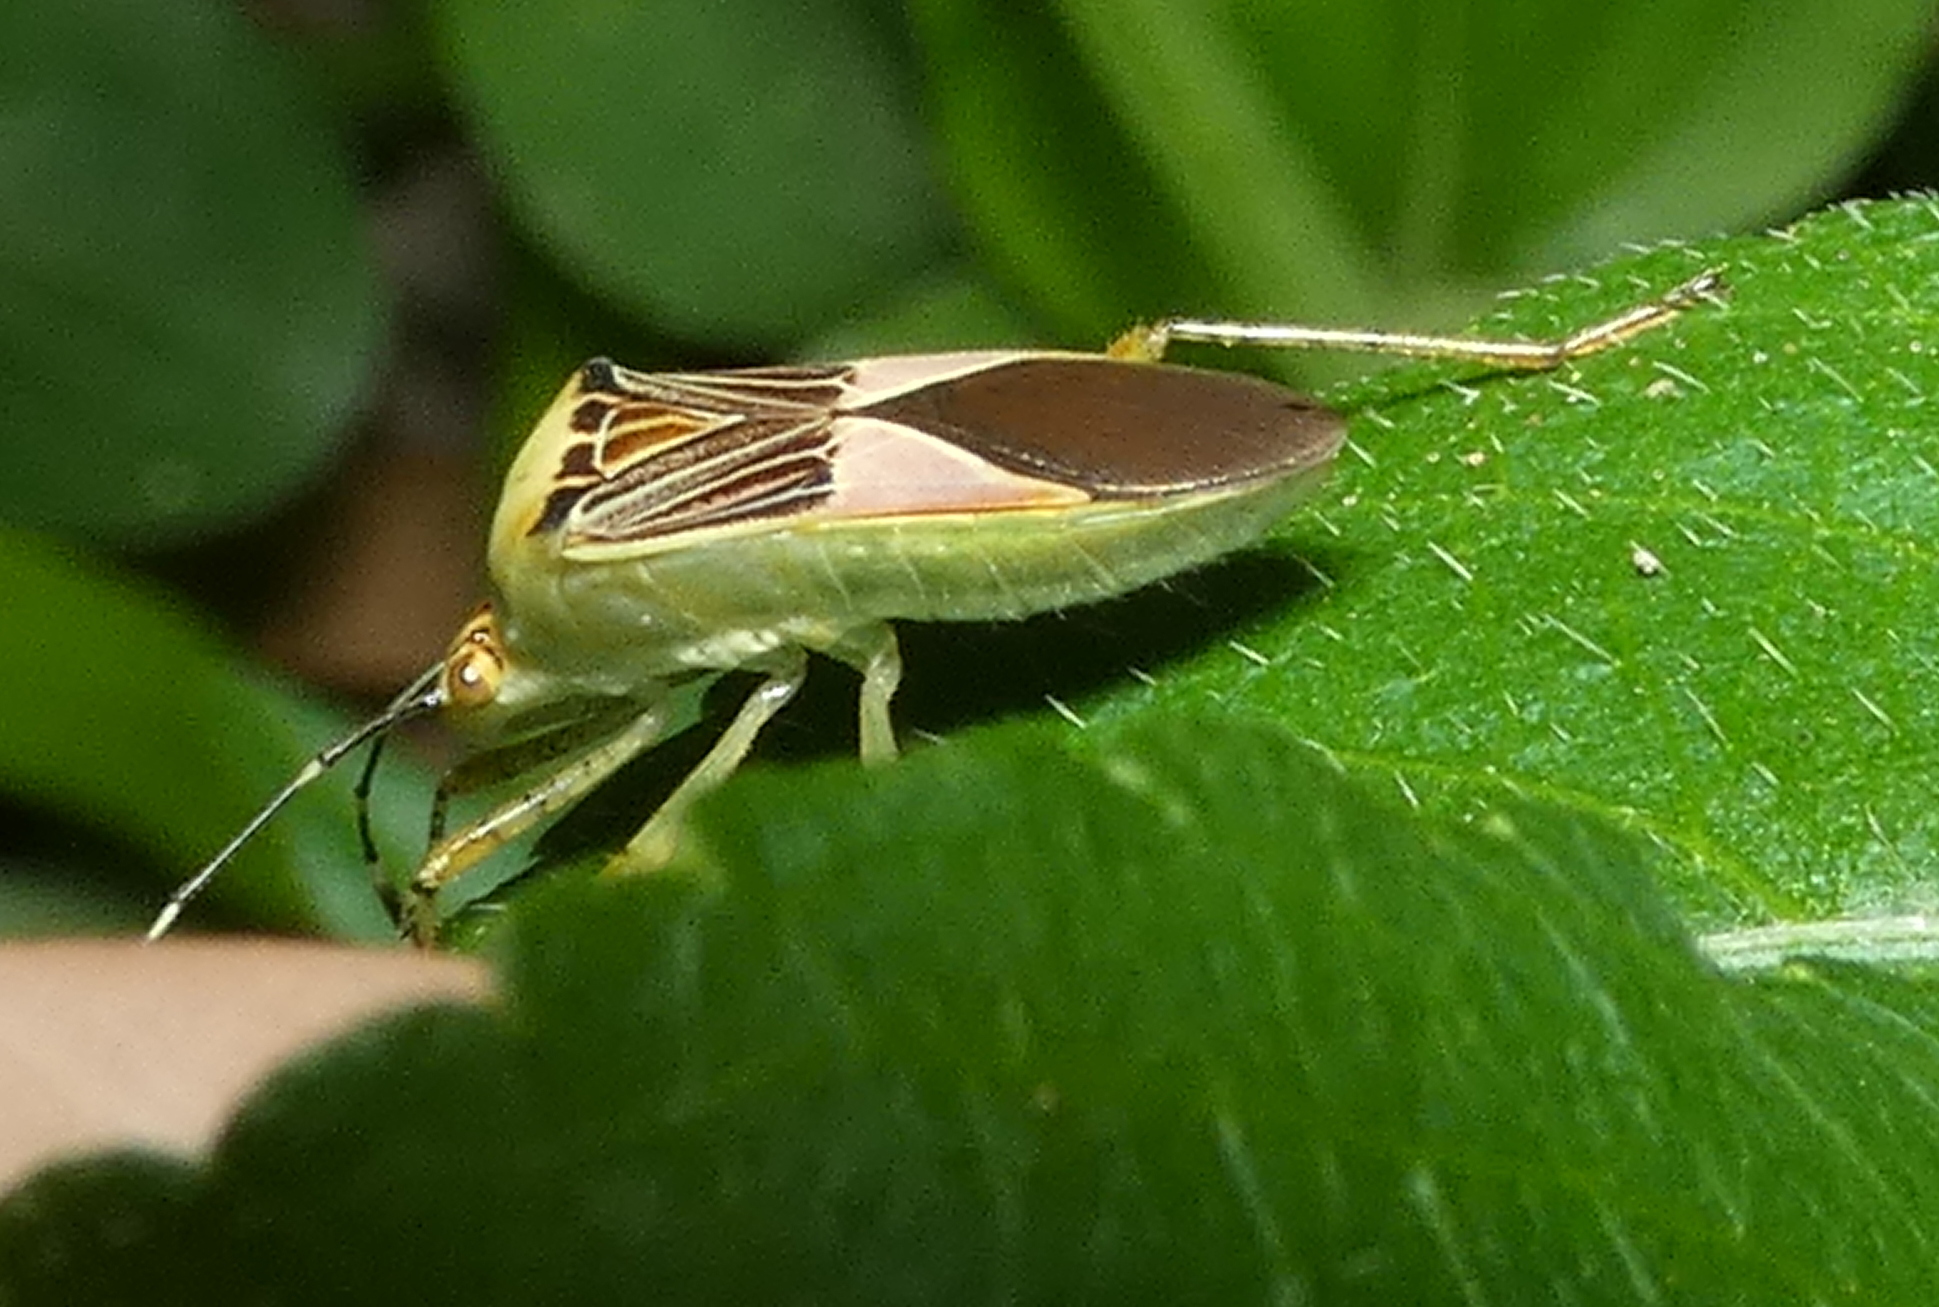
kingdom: Animalia
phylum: Arthropoda
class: Insecta
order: Hemiptera
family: Coreidae
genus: Hypselonotus
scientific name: Hypselonotus fulvus
